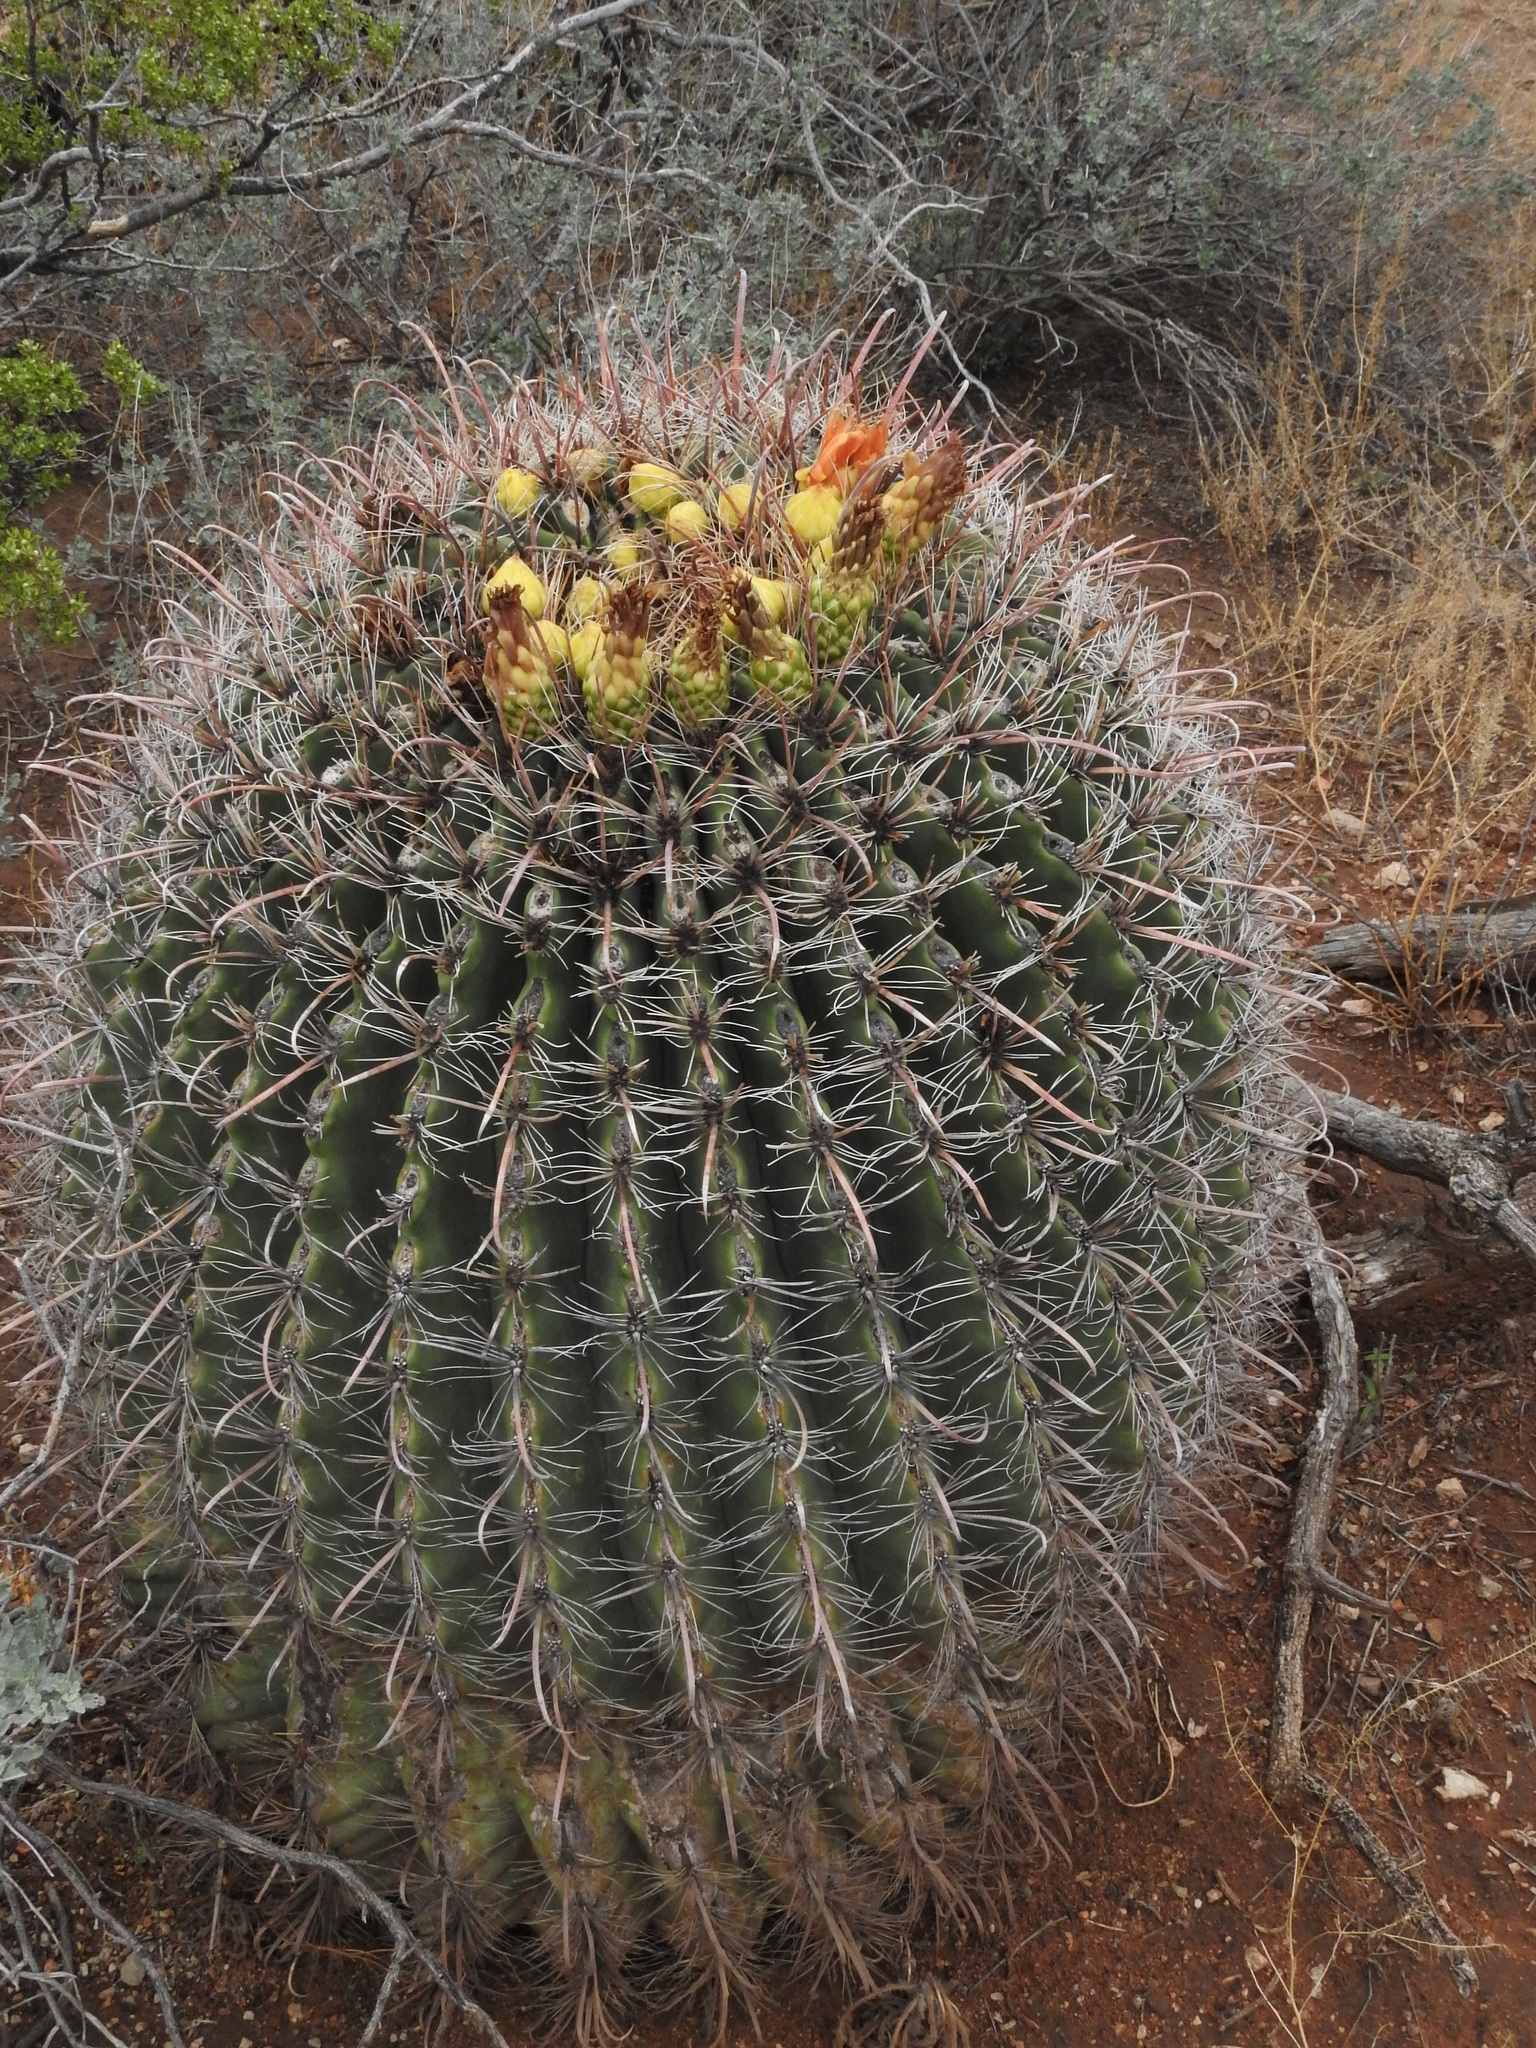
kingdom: Plantae
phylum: Tracheophyta
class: Magnoliopsida
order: Caryophyllales
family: Cactaceae
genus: Ferocactus
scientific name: Ferocactus wislizeni
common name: Candy barrel cactus
